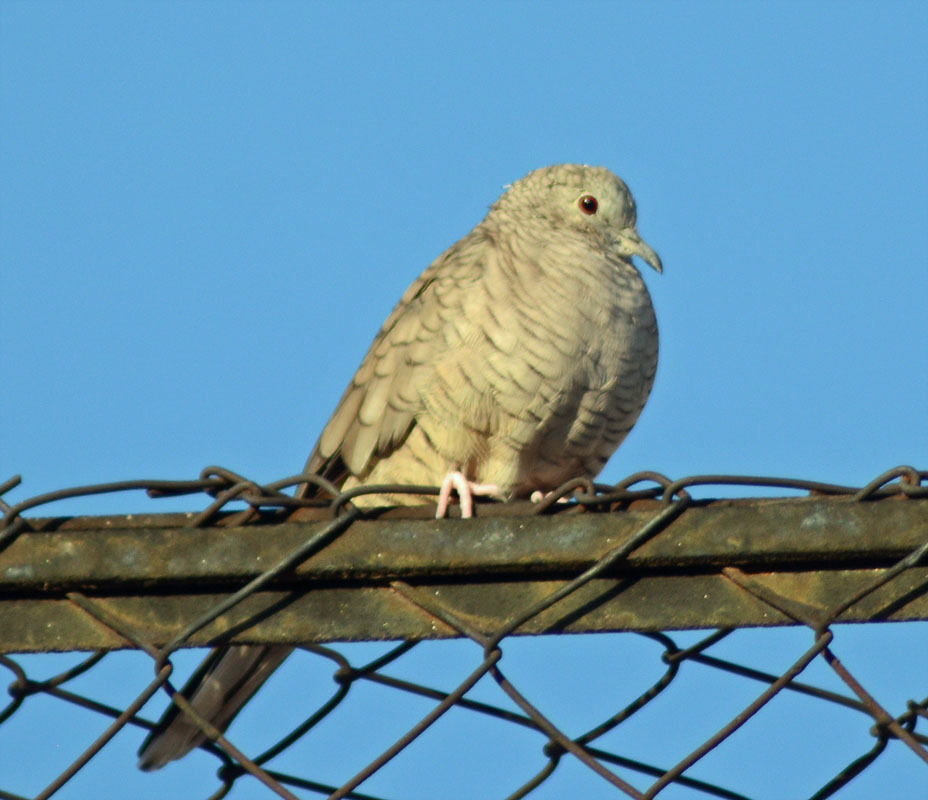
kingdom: Animalia
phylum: Chordata
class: Aves
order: Columbiformes
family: Columbidae
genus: Columbina
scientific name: Columbina inca
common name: Inca dove
